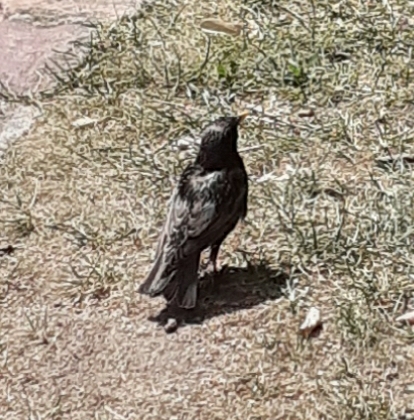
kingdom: Animalia
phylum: Chordata
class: Aves
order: Passeriformes
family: Sturnidae
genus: Sturnus
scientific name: Sturnus vulgaris
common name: Common starling
